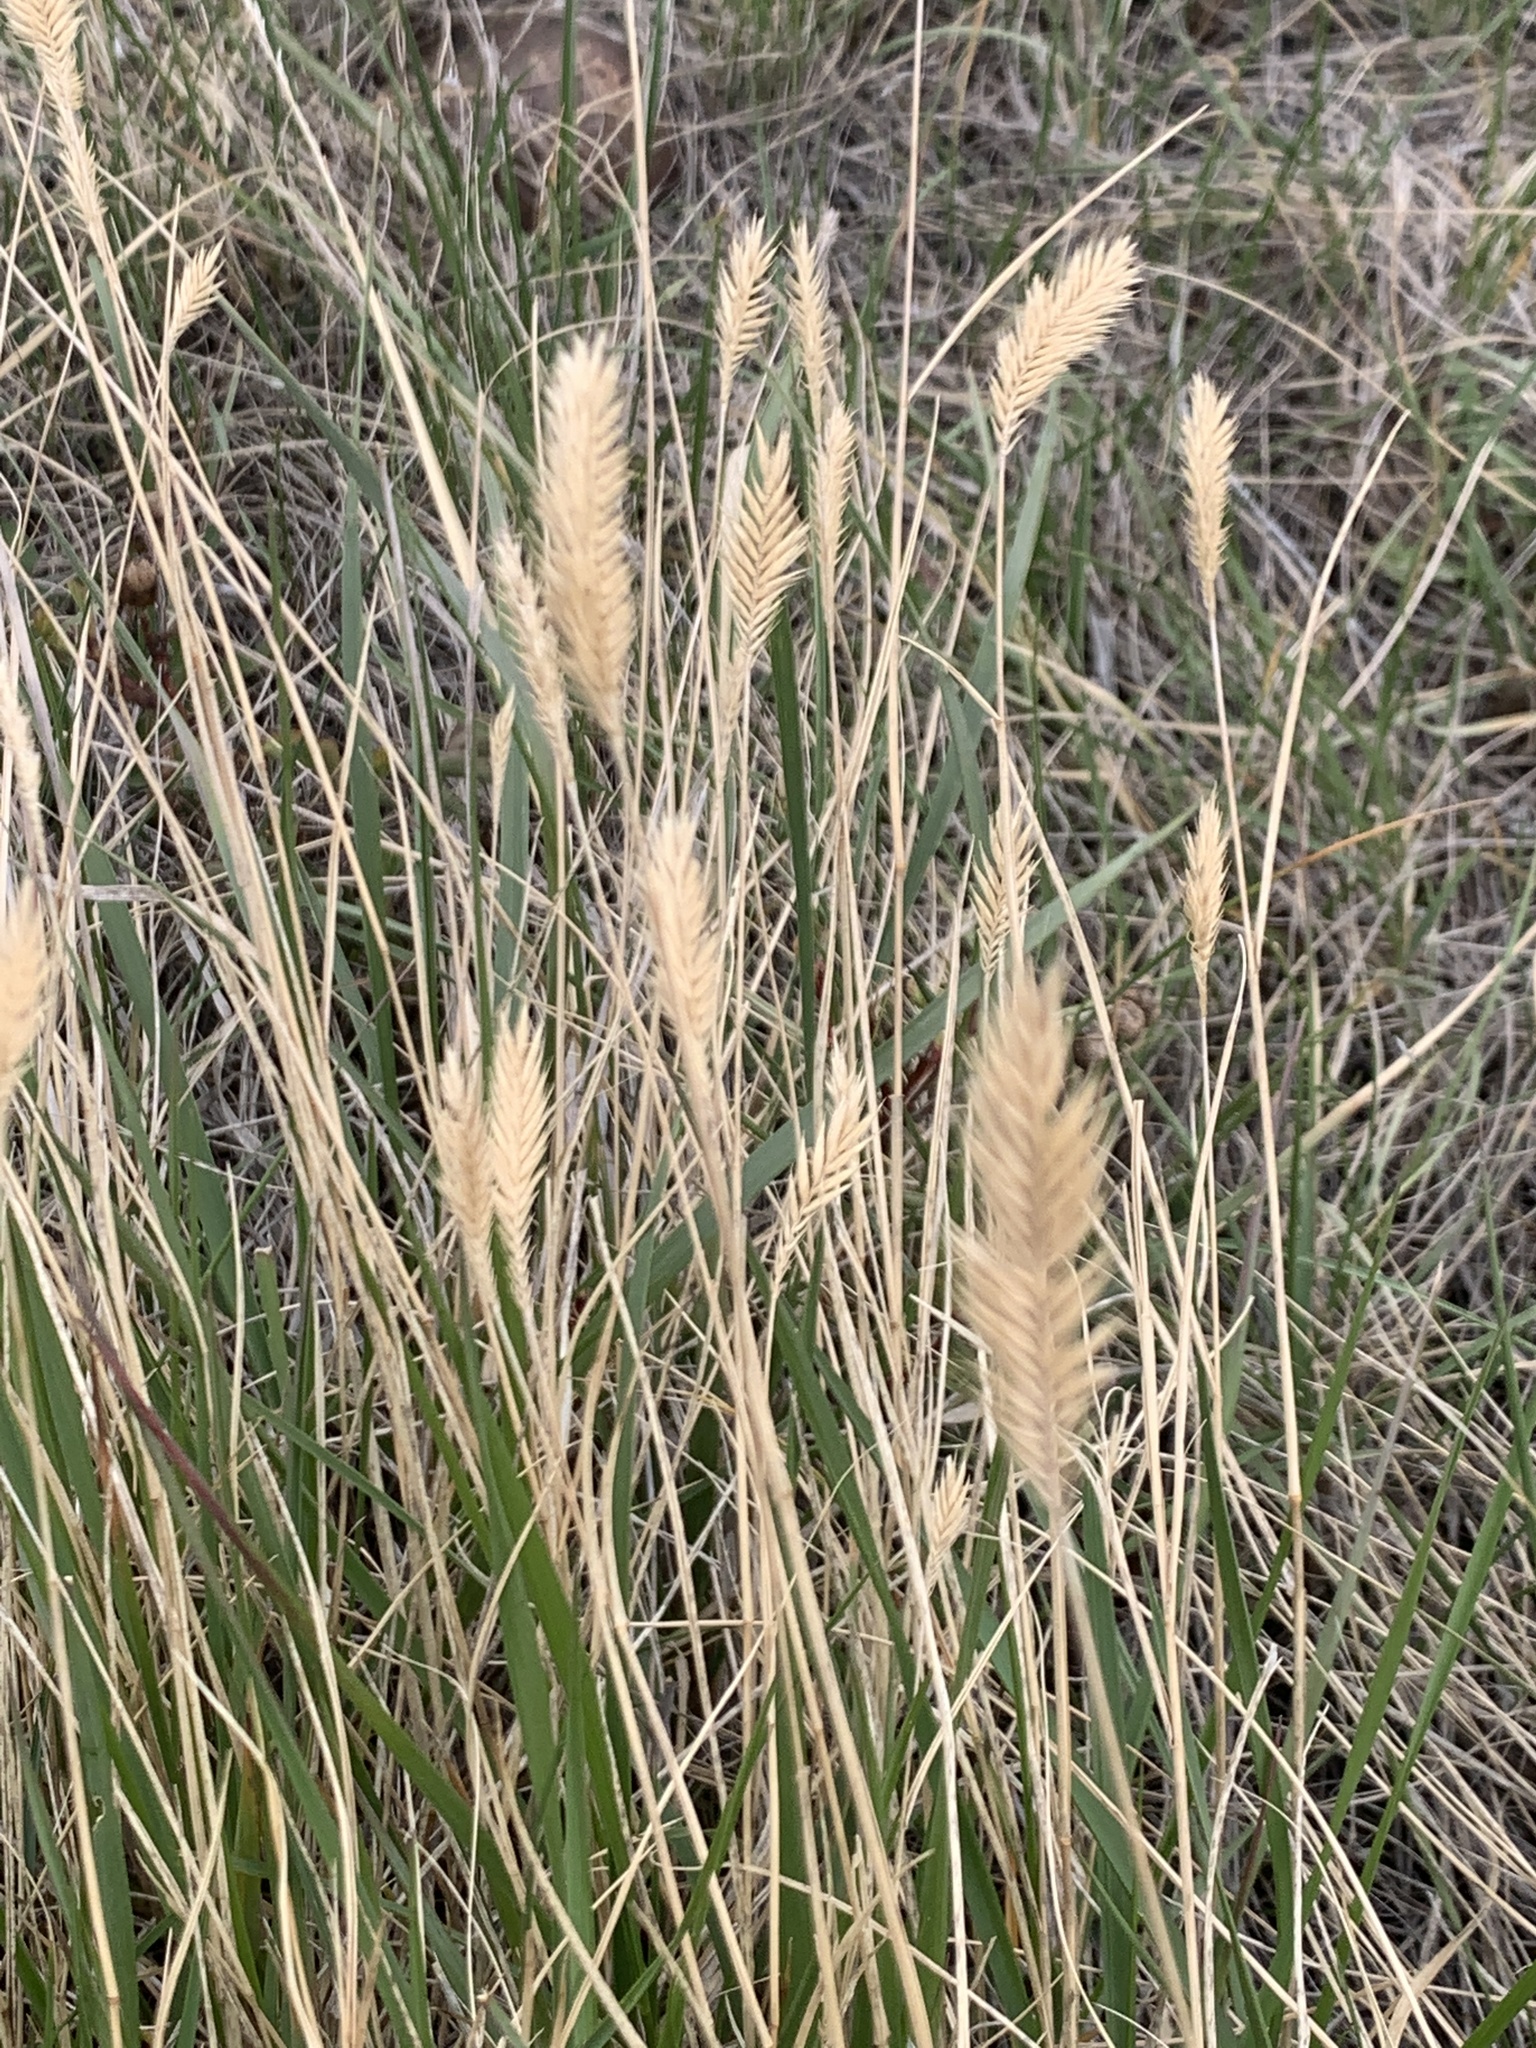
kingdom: Plantae
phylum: Tracheophyta
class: Liliopsida
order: Poales
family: Poaceae
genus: Agropyron
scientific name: Agropyron cristatum
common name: Crested wheatgrass
